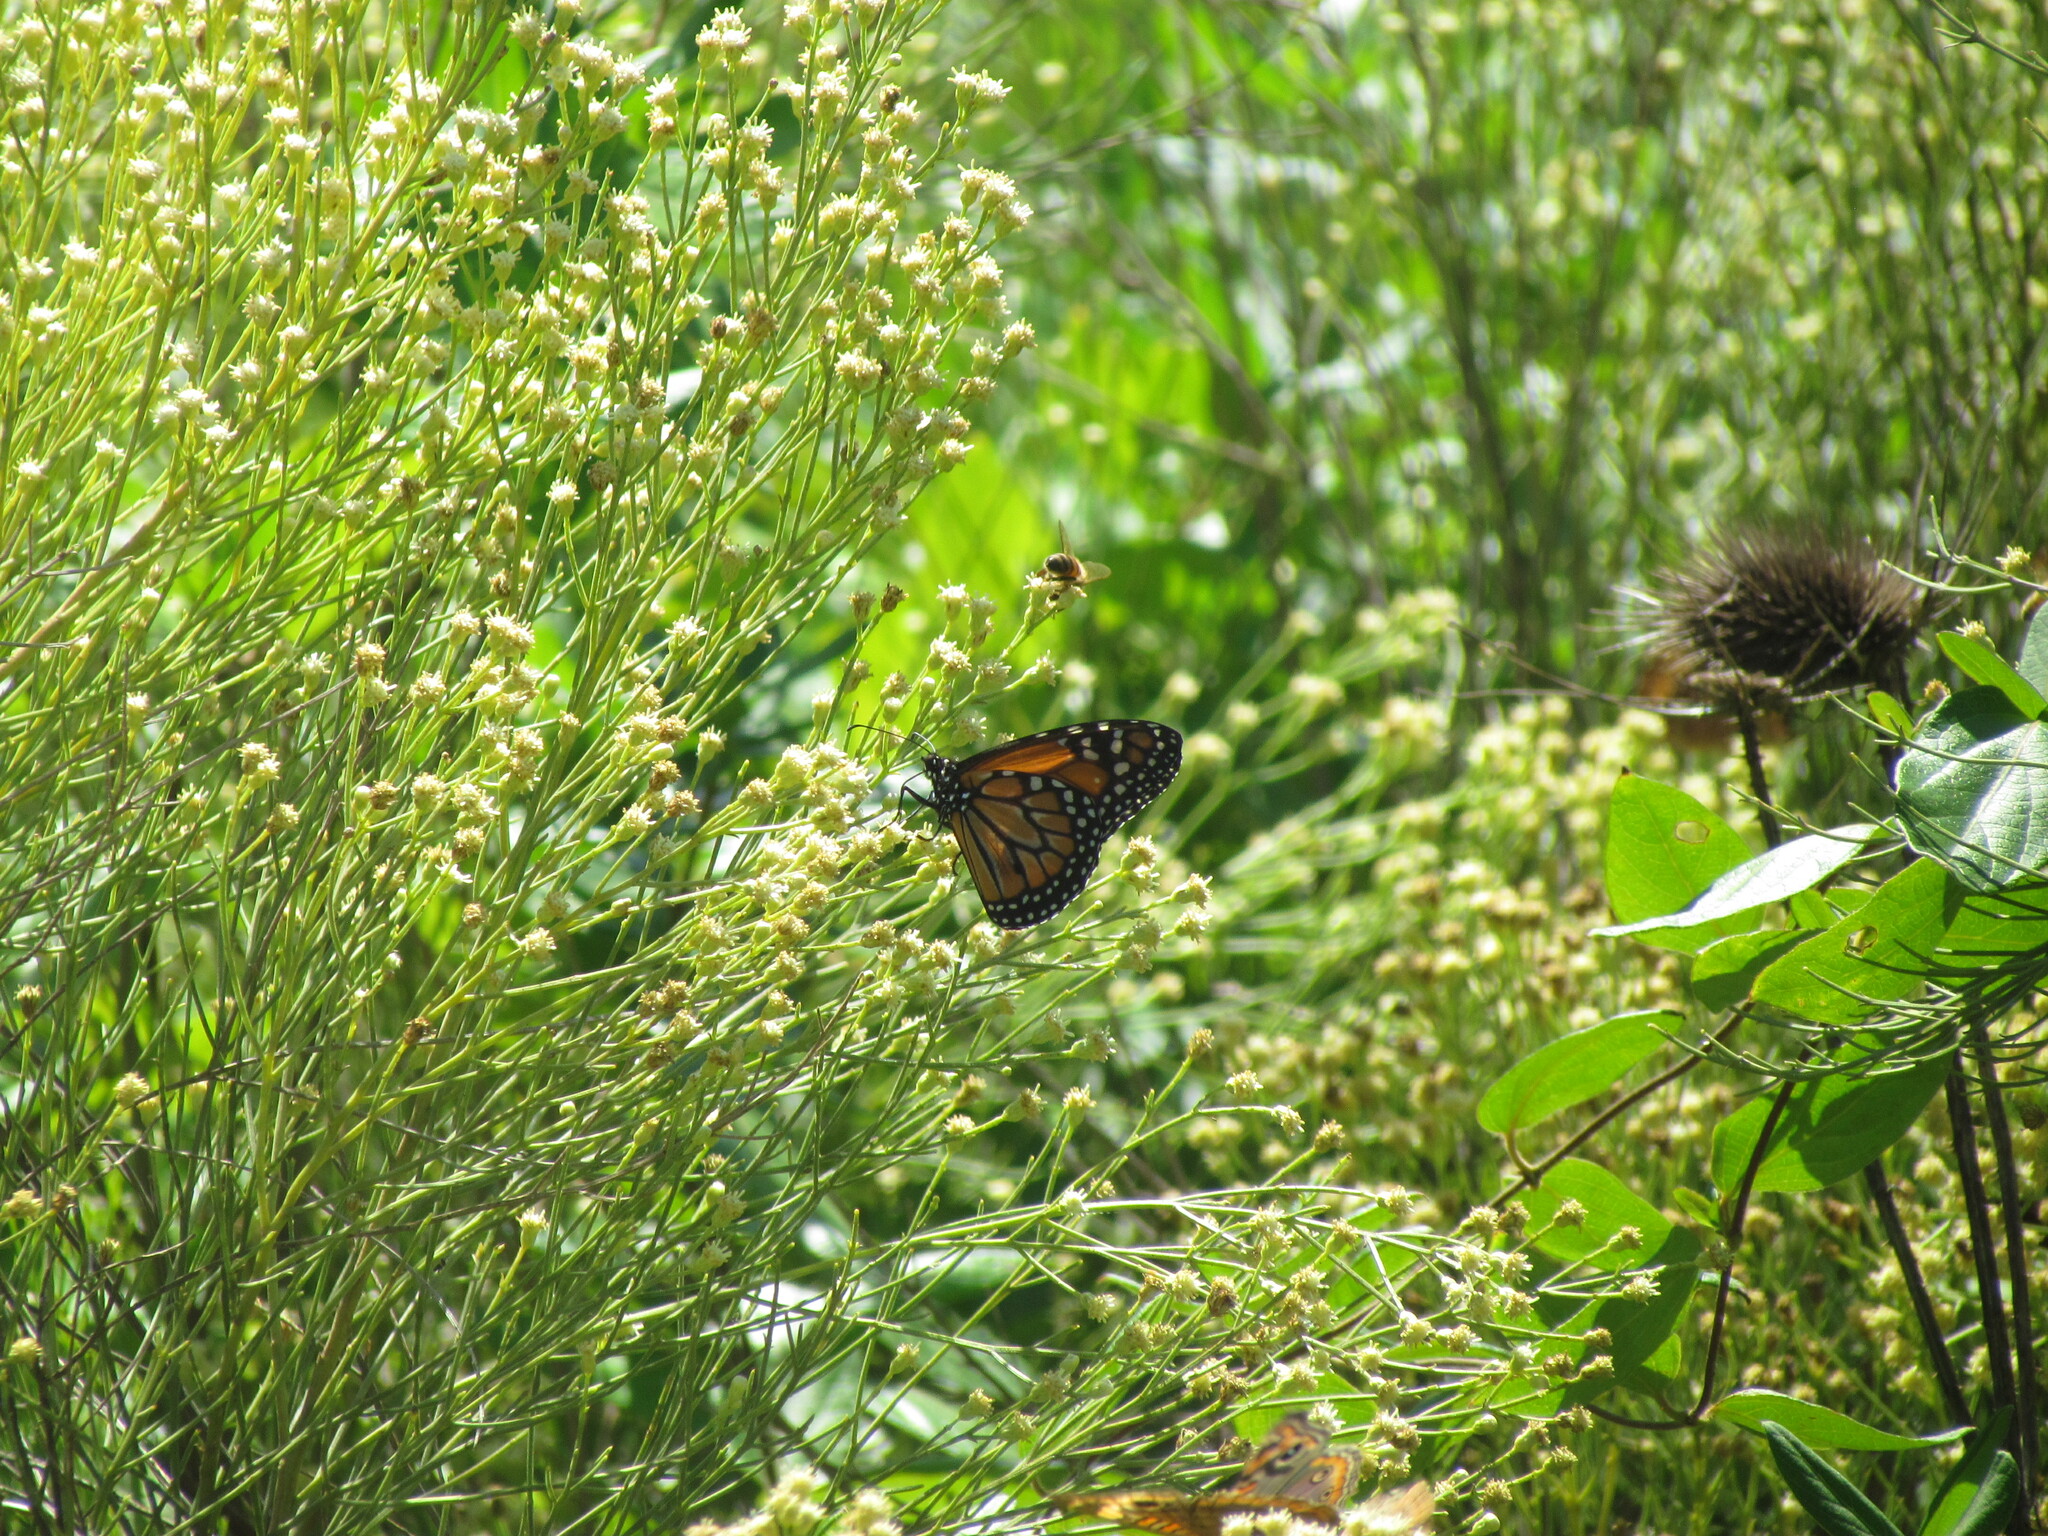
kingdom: Animalia
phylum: Arthropoda
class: Insecta
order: Lepidoptera
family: Nymphalidae
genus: Danaus
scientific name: Danaus erippus
